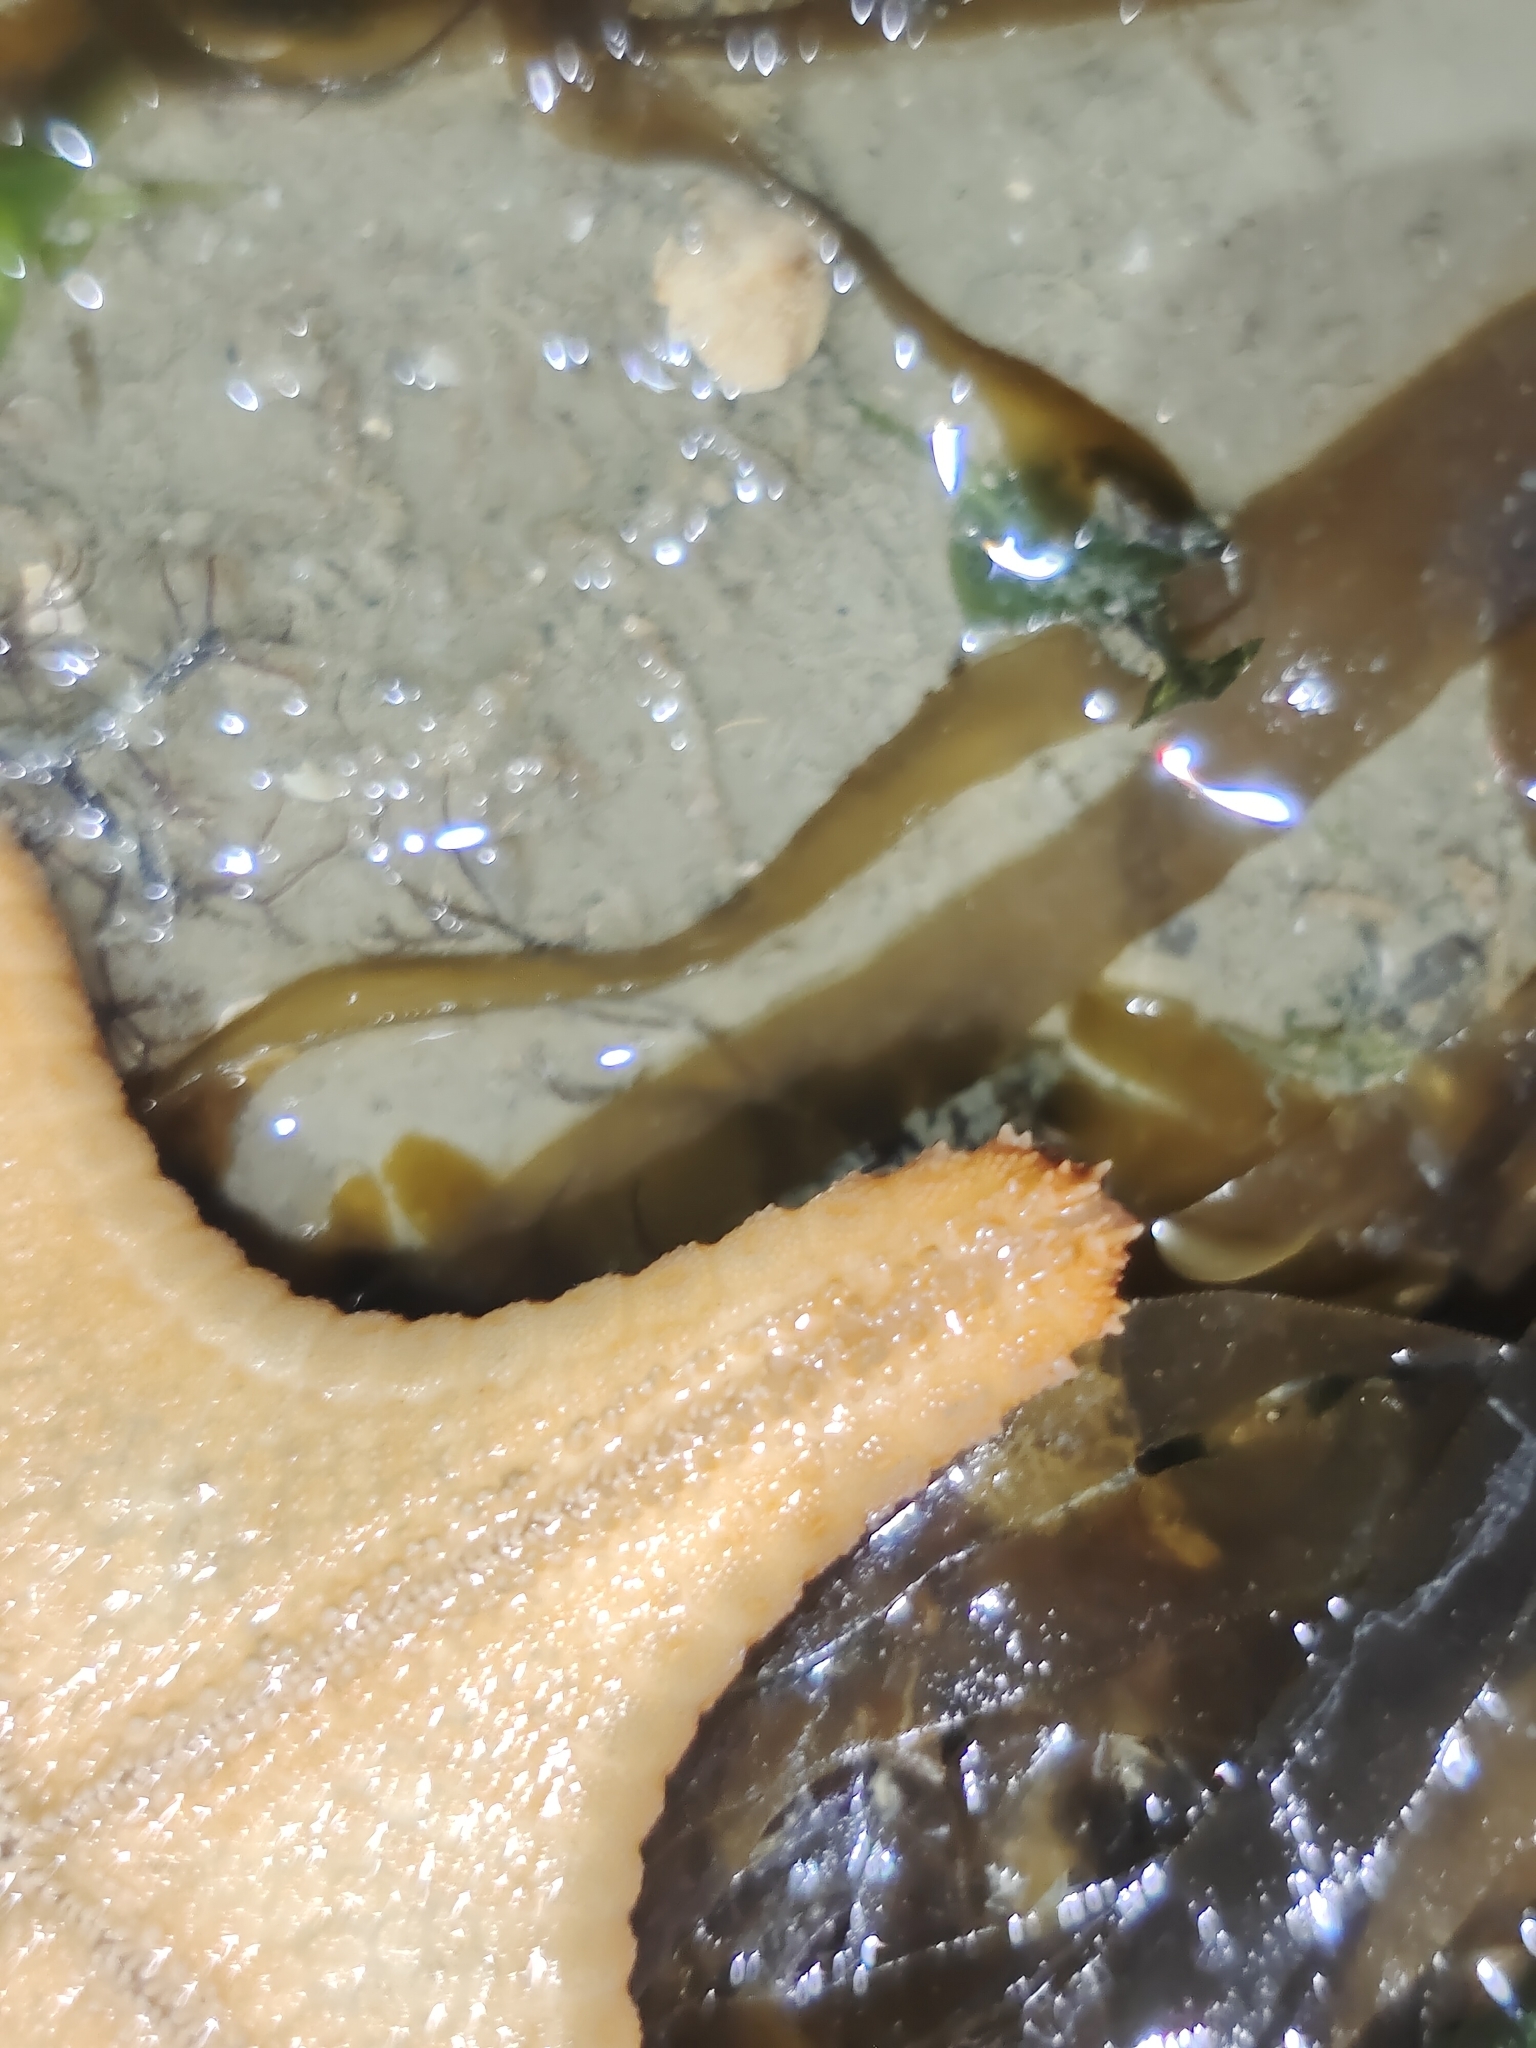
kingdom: Animalia
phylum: Echinodermata
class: Asteroidea
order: Valvatida
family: Oreasteridae
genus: Anthenea
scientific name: Anthenea aspera
